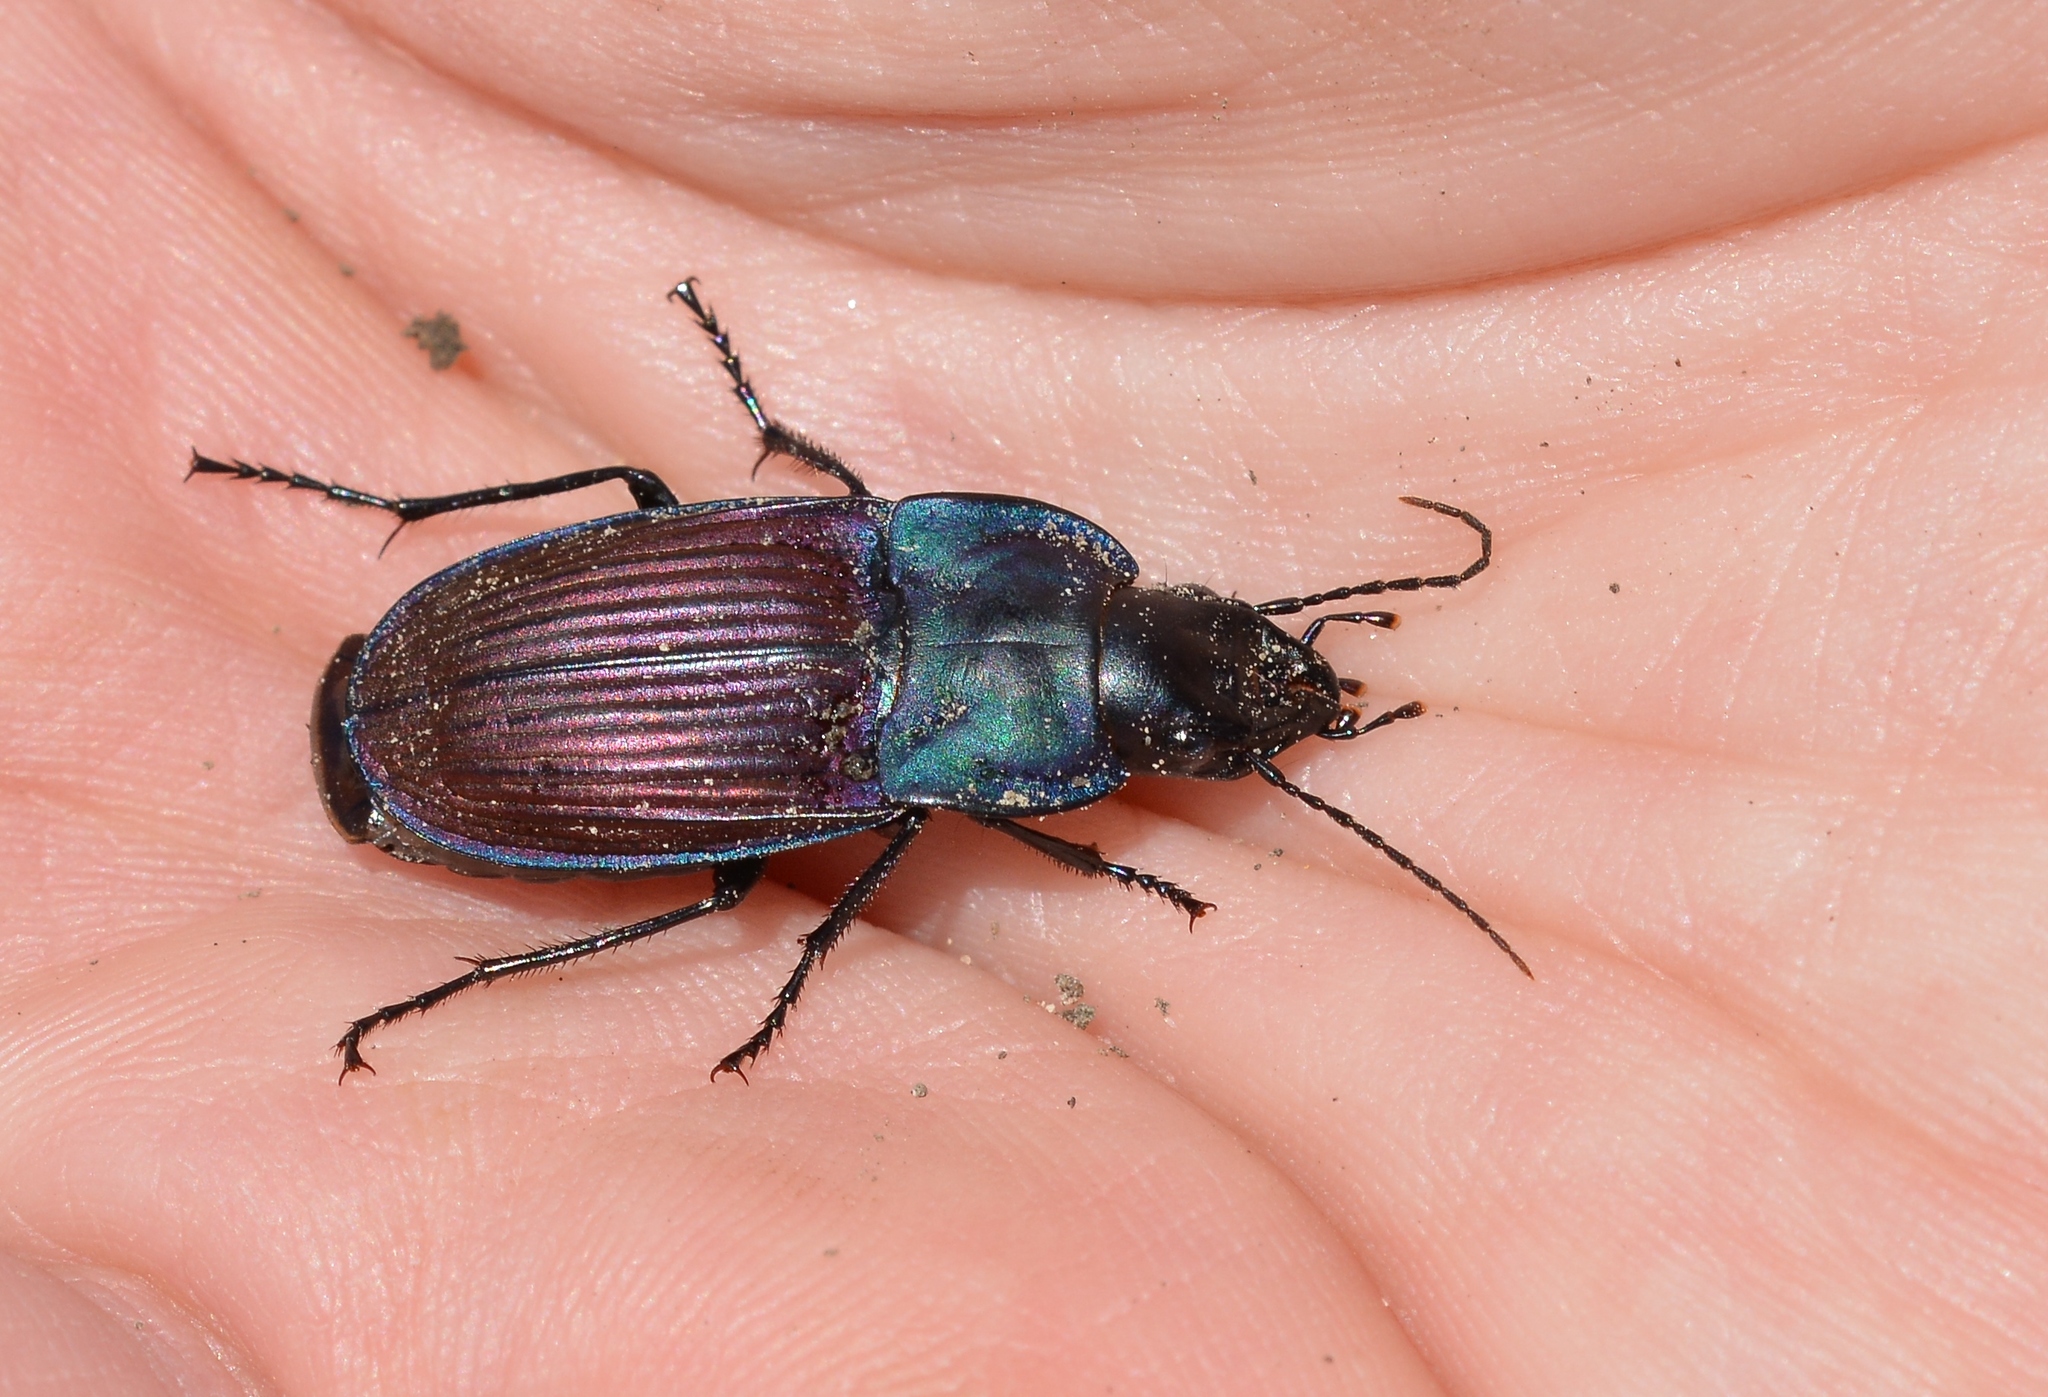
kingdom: Animalia
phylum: Arthropoda
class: Insecta
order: Coleoptera
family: Carabidae
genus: Dicaelus
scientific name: Dicaelus purpuratus
